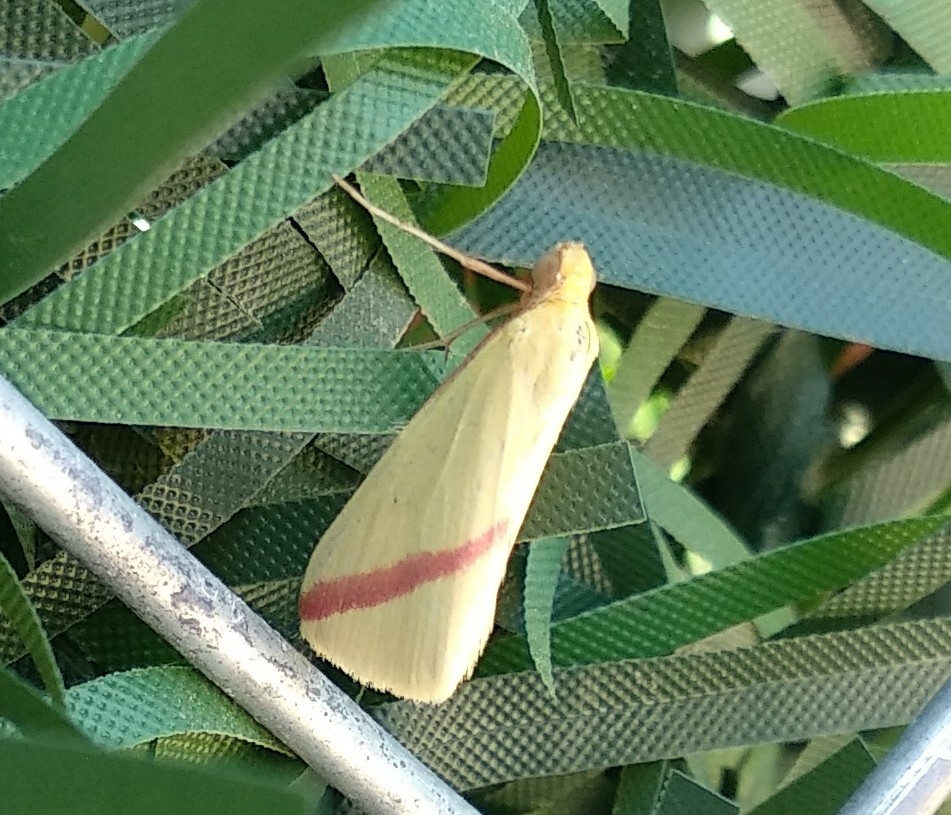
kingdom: Animalia
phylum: Arthropoda
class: Insecta
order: Lepidoptera
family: Geometridae
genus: Rhodometra
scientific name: Rhodometra sacraria
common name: Vestal
